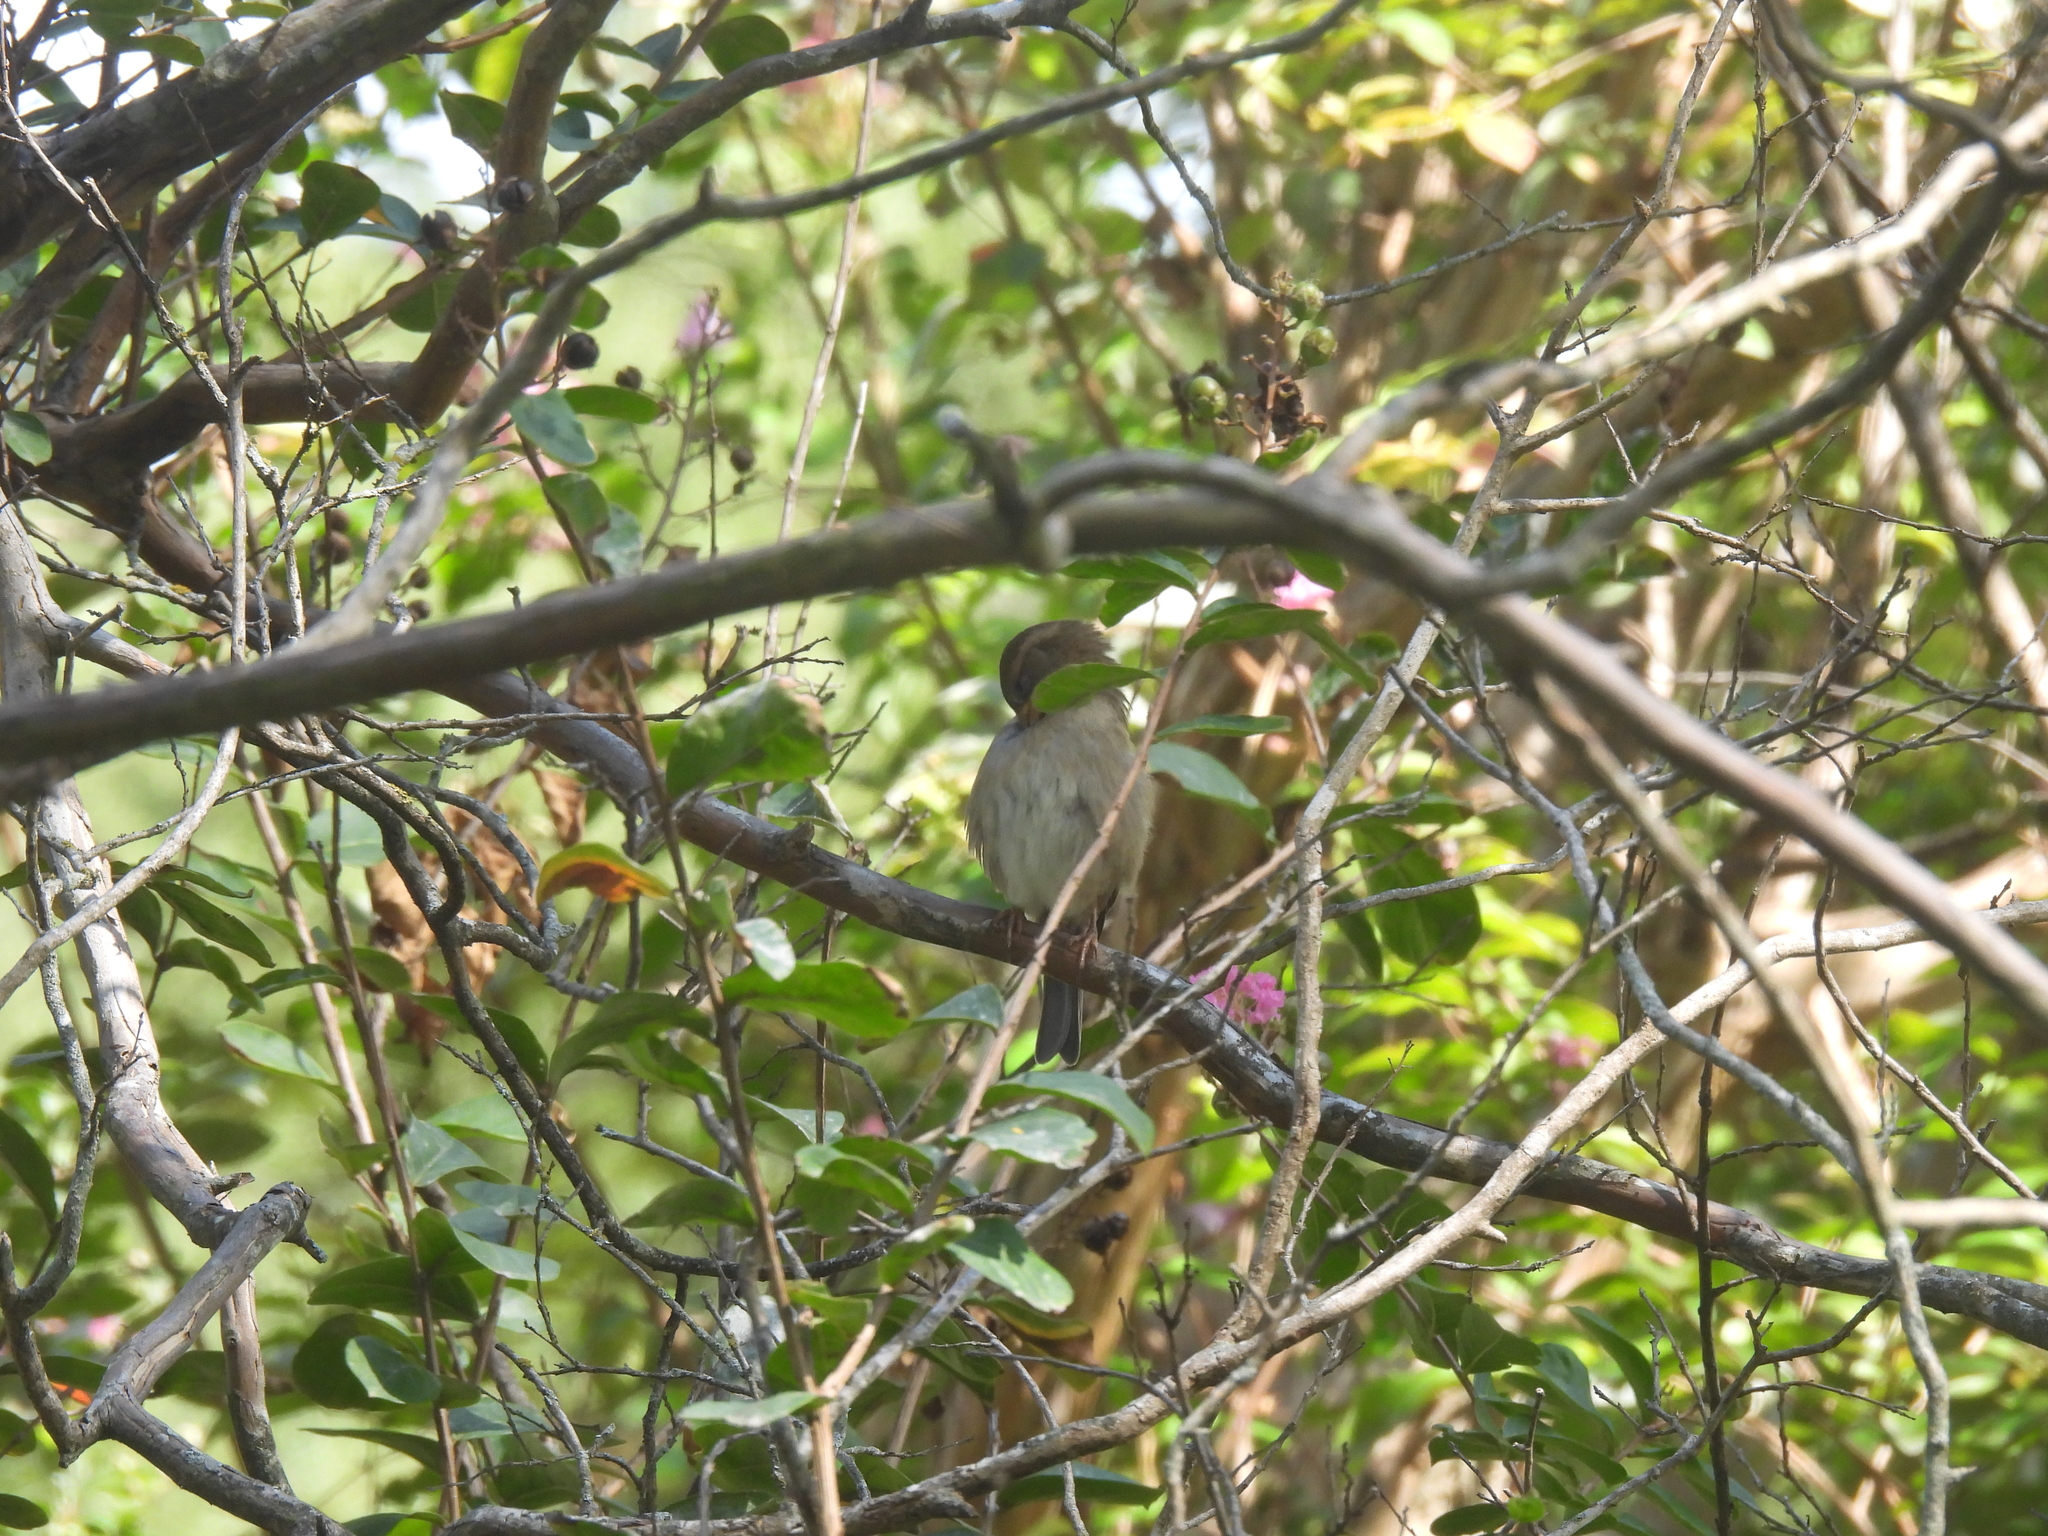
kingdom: Animalia
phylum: Chordata
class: Aves
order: Passeriformes
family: Passeridae
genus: Passer
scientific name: Passer domesticus
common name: House sparrow
